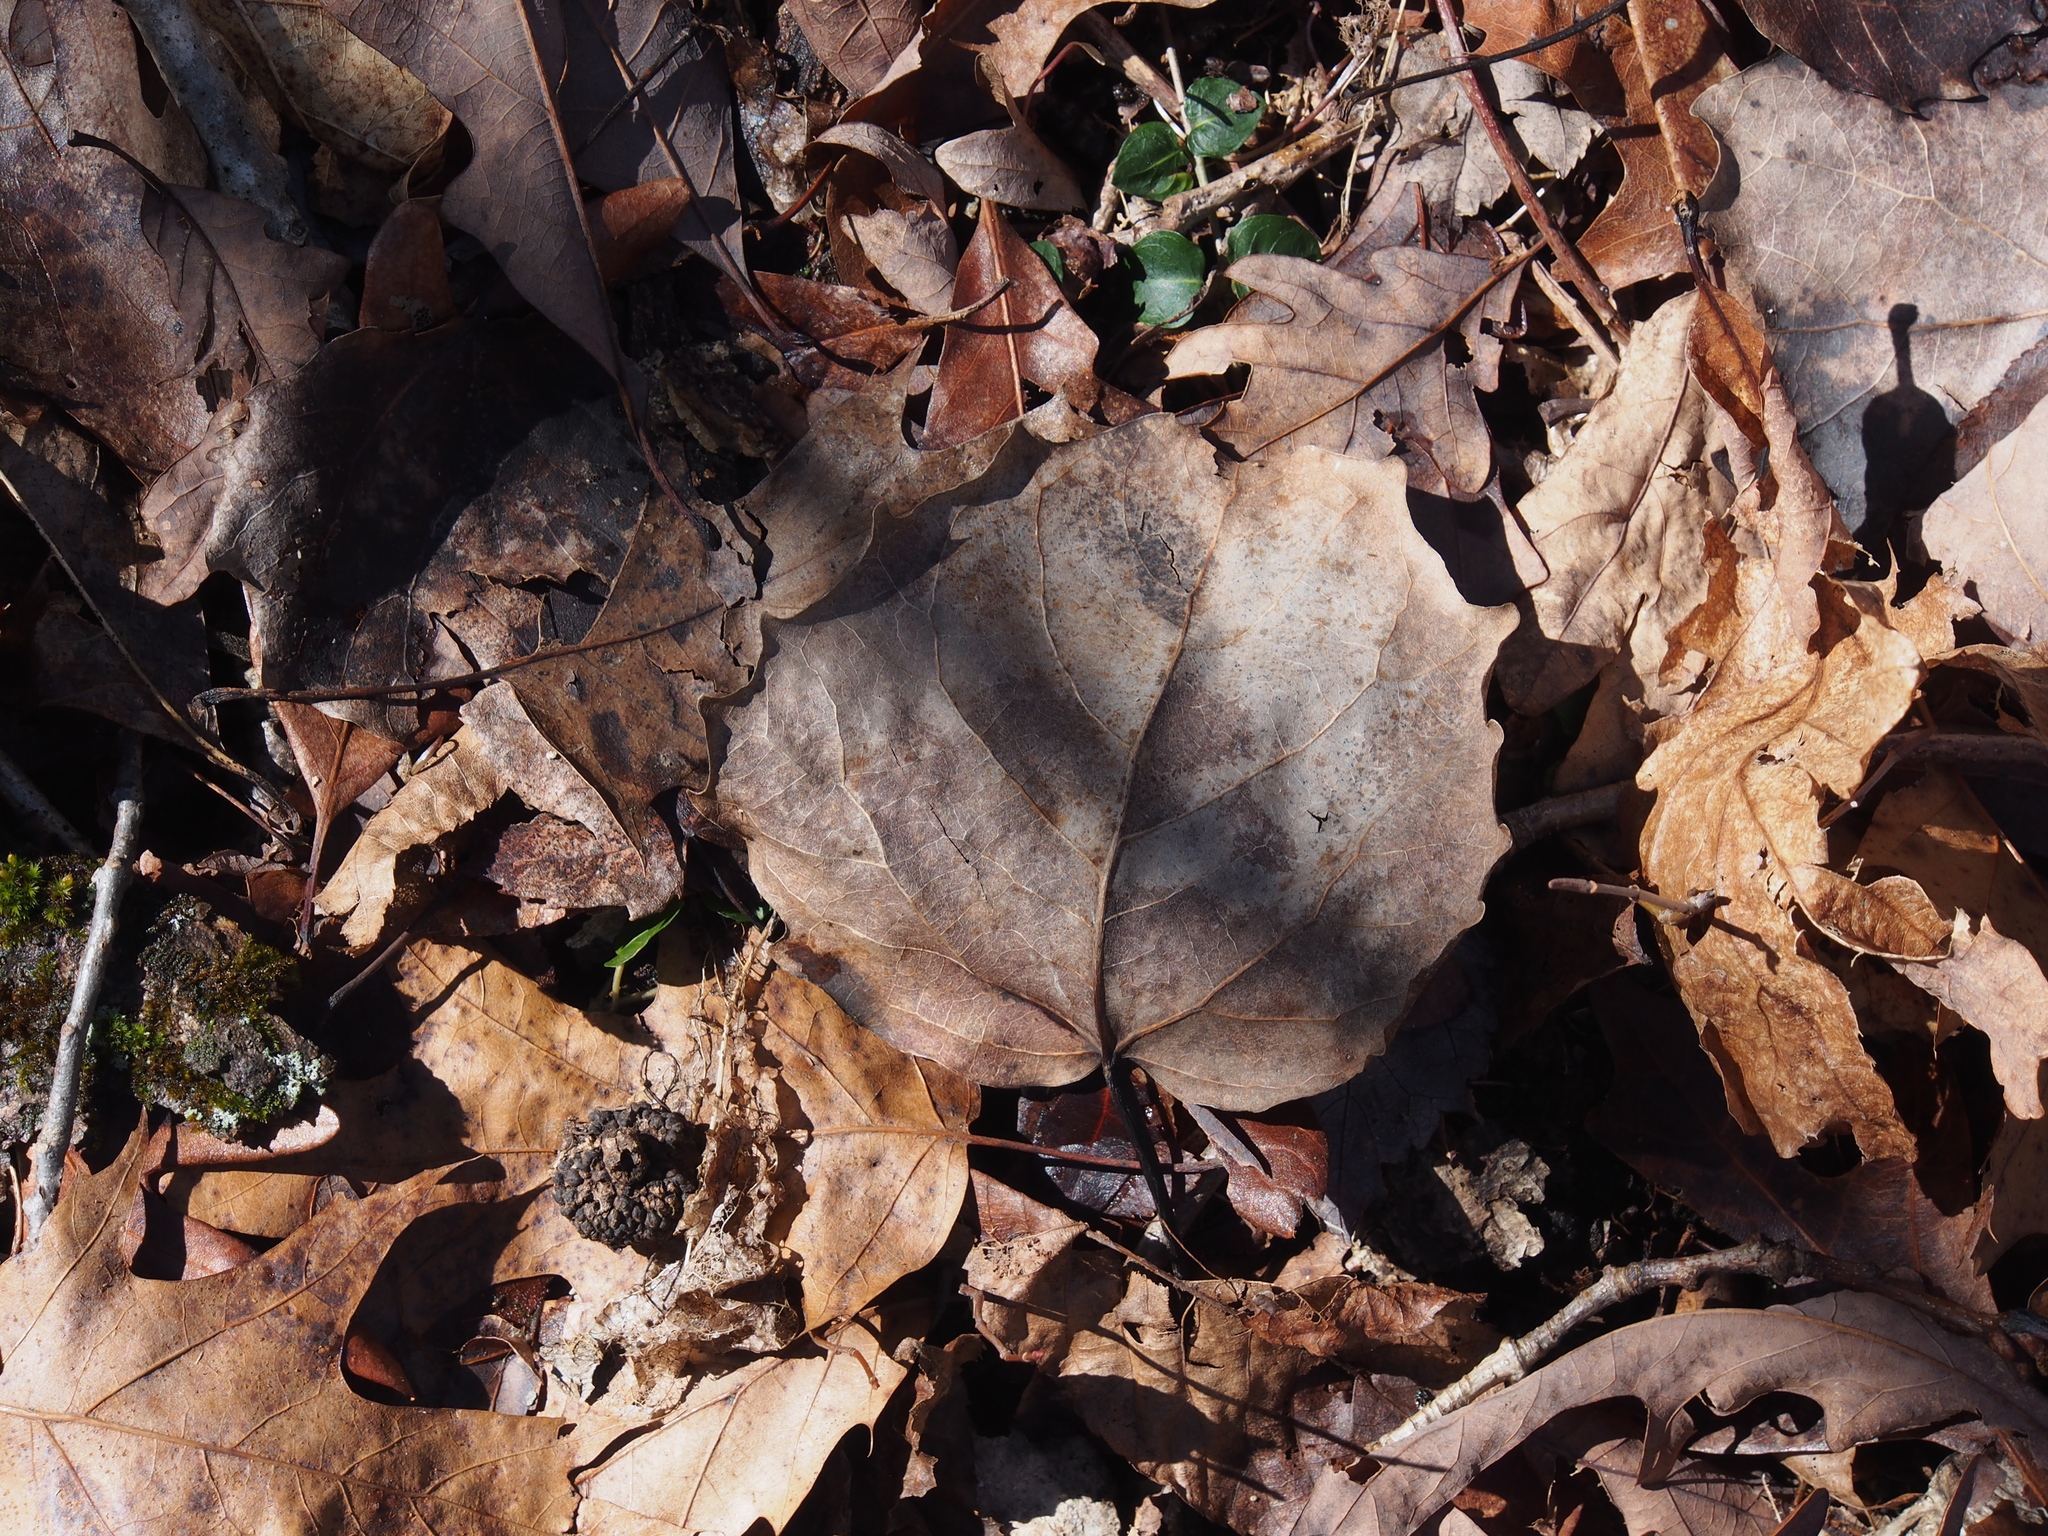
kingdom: Plantae
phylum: Tracheophyta
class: Magnoliopsida
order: Malpighiales
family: Salicaceae
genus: Populus
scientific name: Populus grandidentata
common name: Bigtooth aspen
